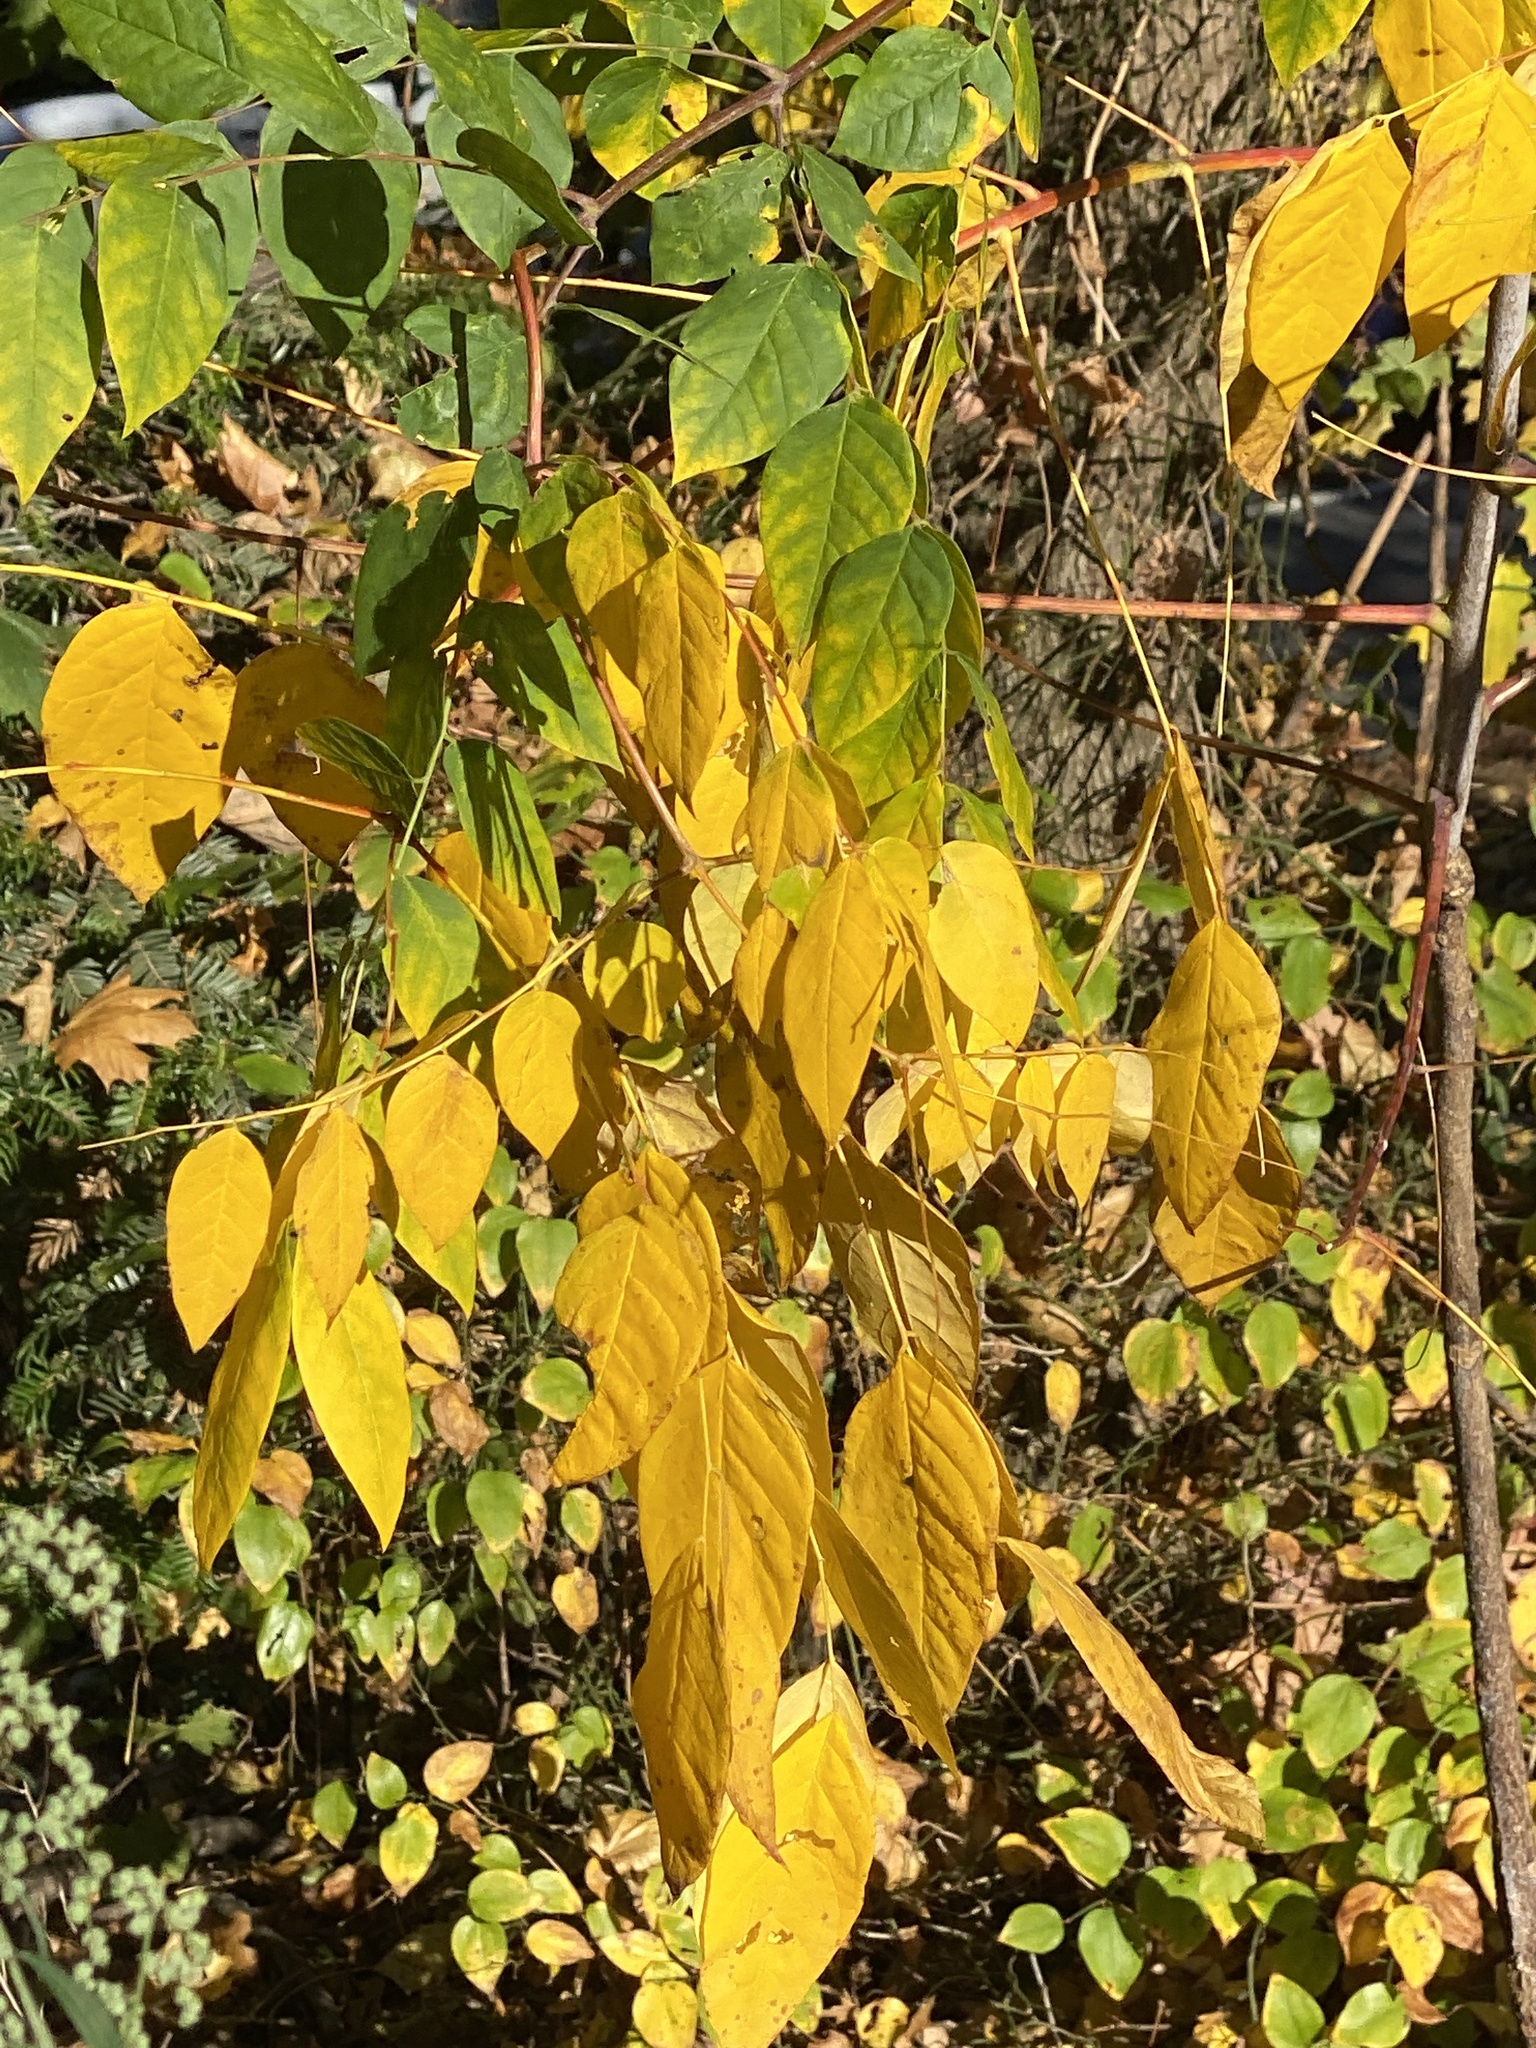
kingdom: Plantae
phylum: Tracheophyta
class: Magnoliopsida
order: Fabales
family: Fabaceae
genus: Gymnocladus
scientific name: Gymnocladus dioicus
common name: Kentucky coffee-tree
